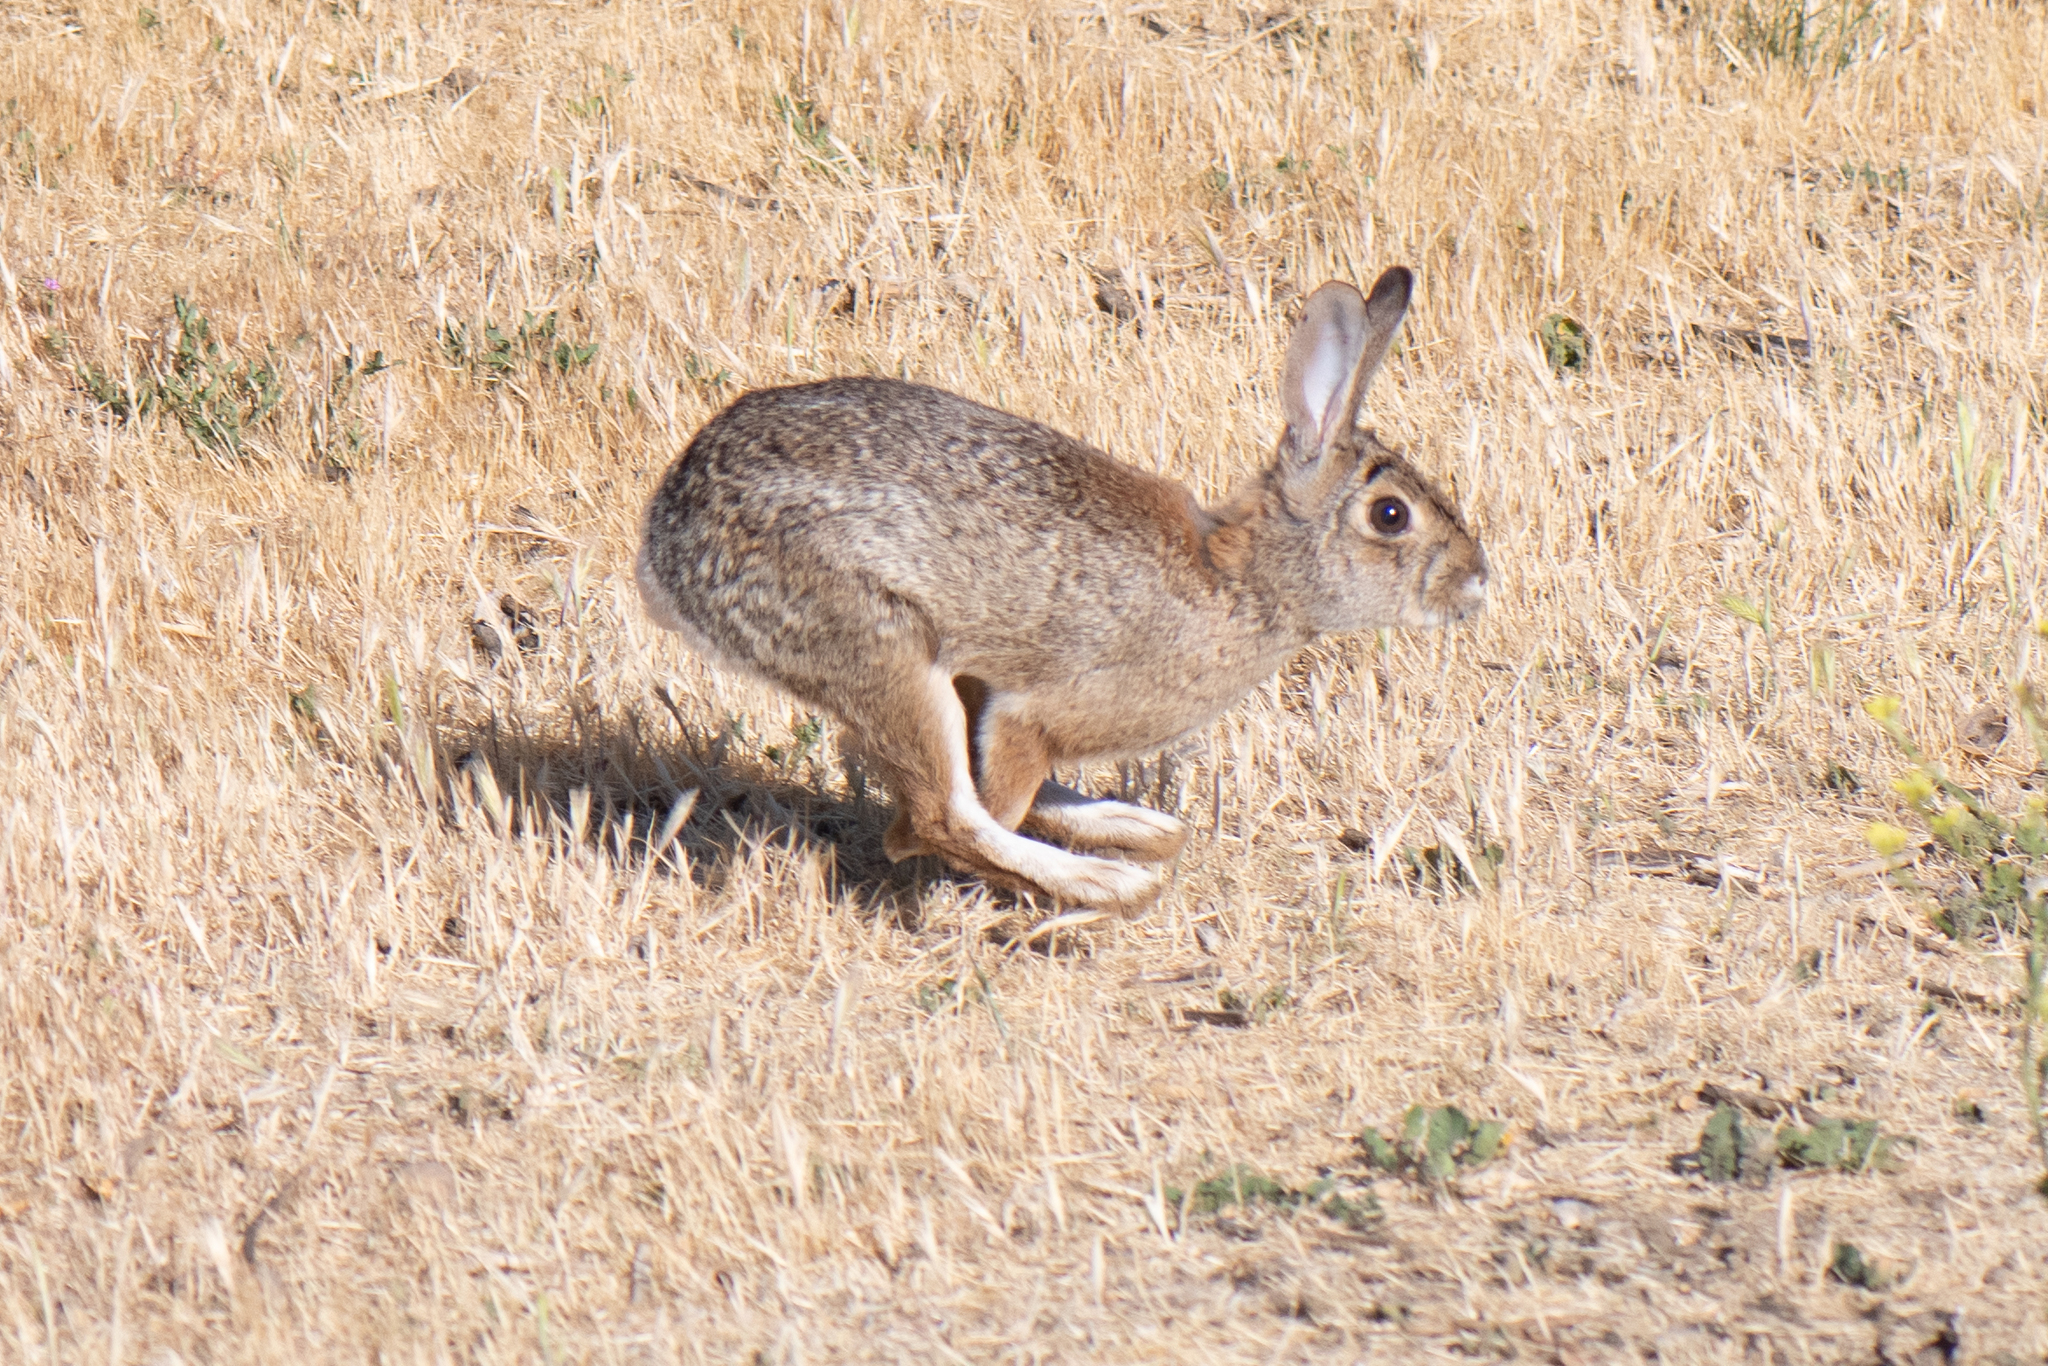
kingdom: Animalia
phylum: Chordata
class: Mammalia
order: Lagomorpha
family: Leporidae
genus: Sylvilagus
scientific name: Sylvilagus audubonii
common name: Desert cottontail
